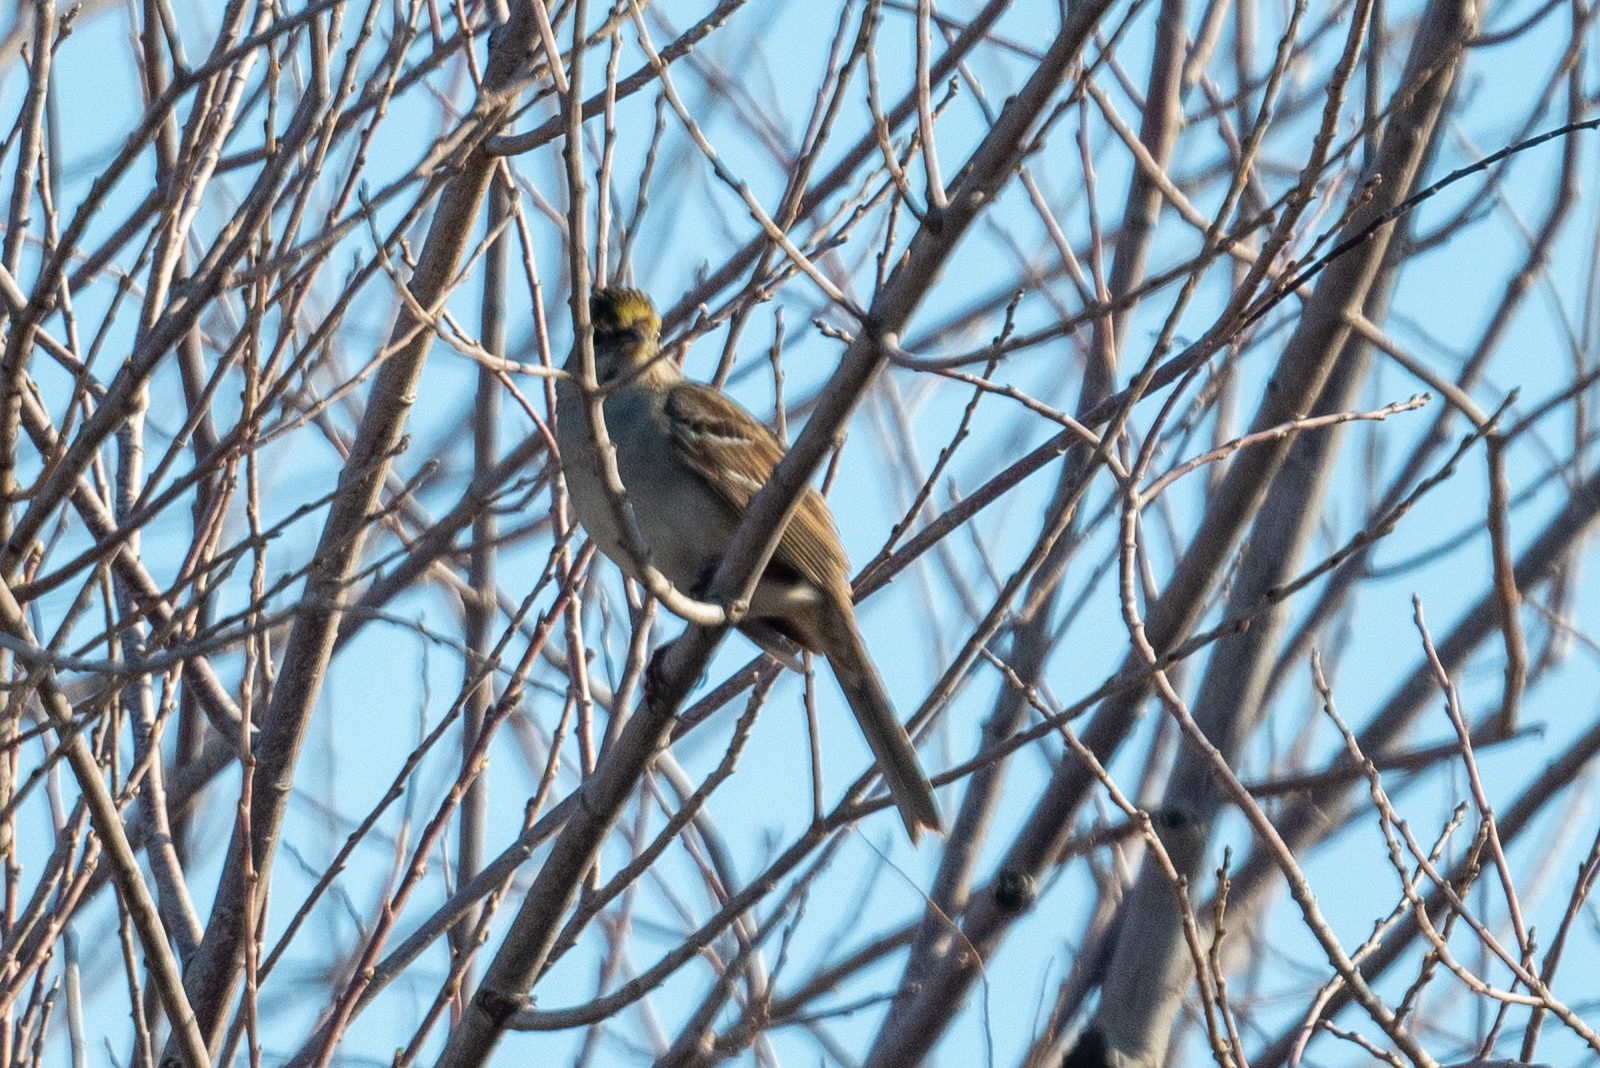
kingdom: Animalia
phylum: Chordata
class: Aves
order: Passeriformes
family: Passerellidae
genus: Zonotrichia
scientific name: Zonotrichia atricapilla
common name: Golden-crowned sparrow
